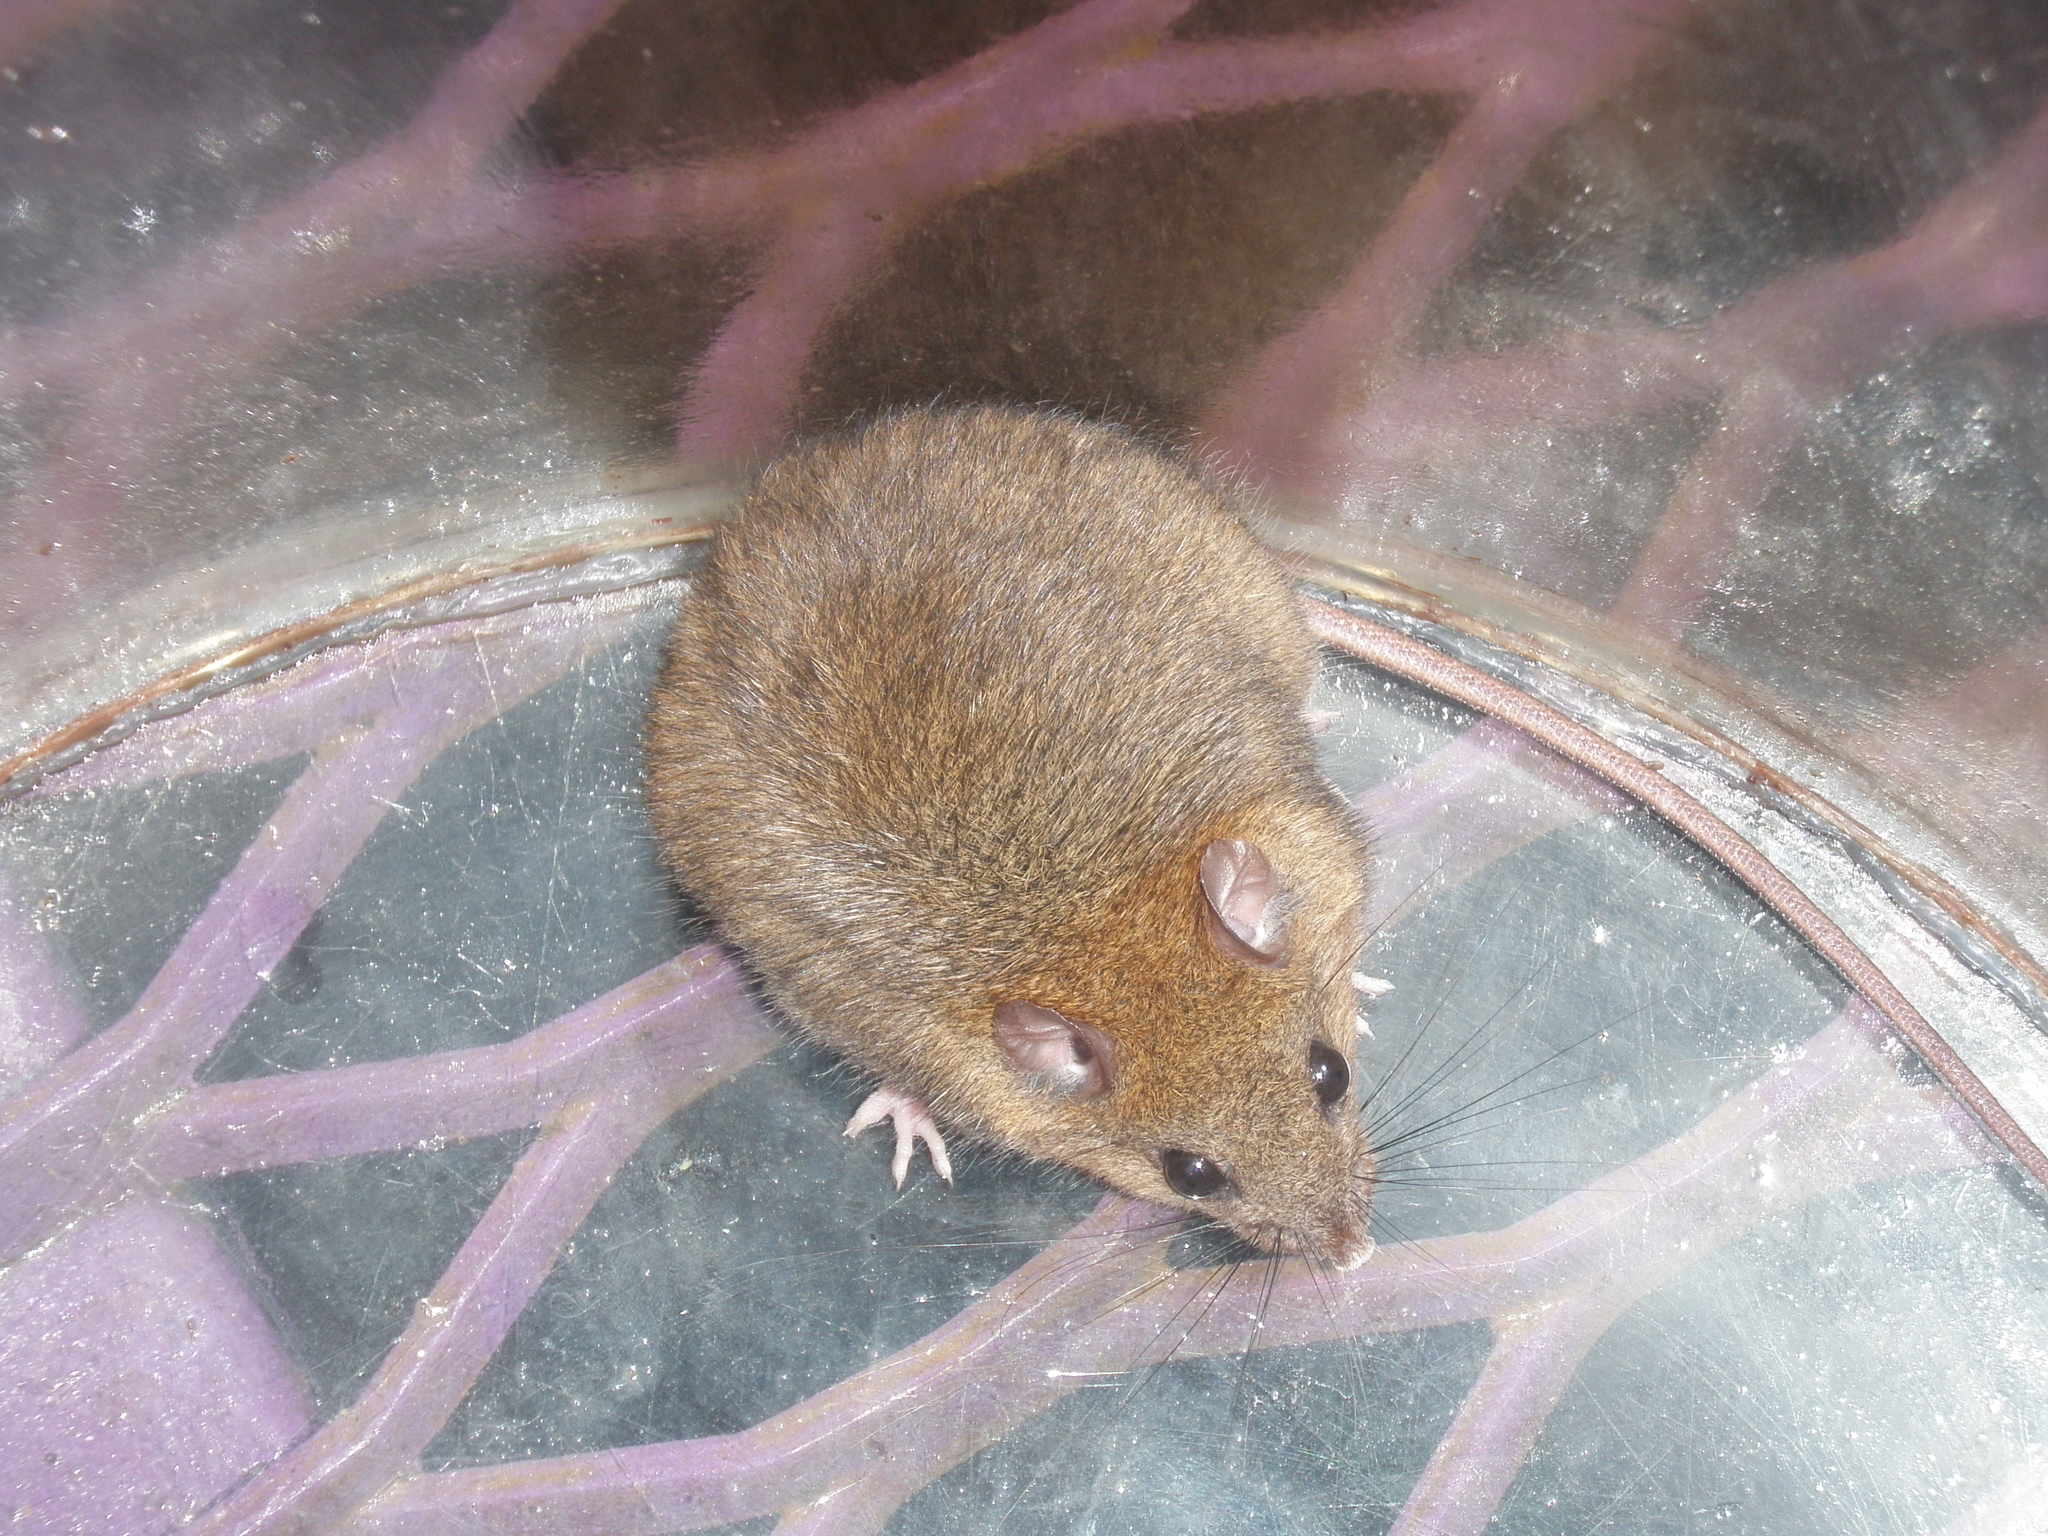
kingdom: Animalia
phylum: Chordata
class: Mammalia
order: Rodentia
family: Muridae
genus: Melomys
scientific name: Melomys cervinipes
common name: Fawn-footed melomys
